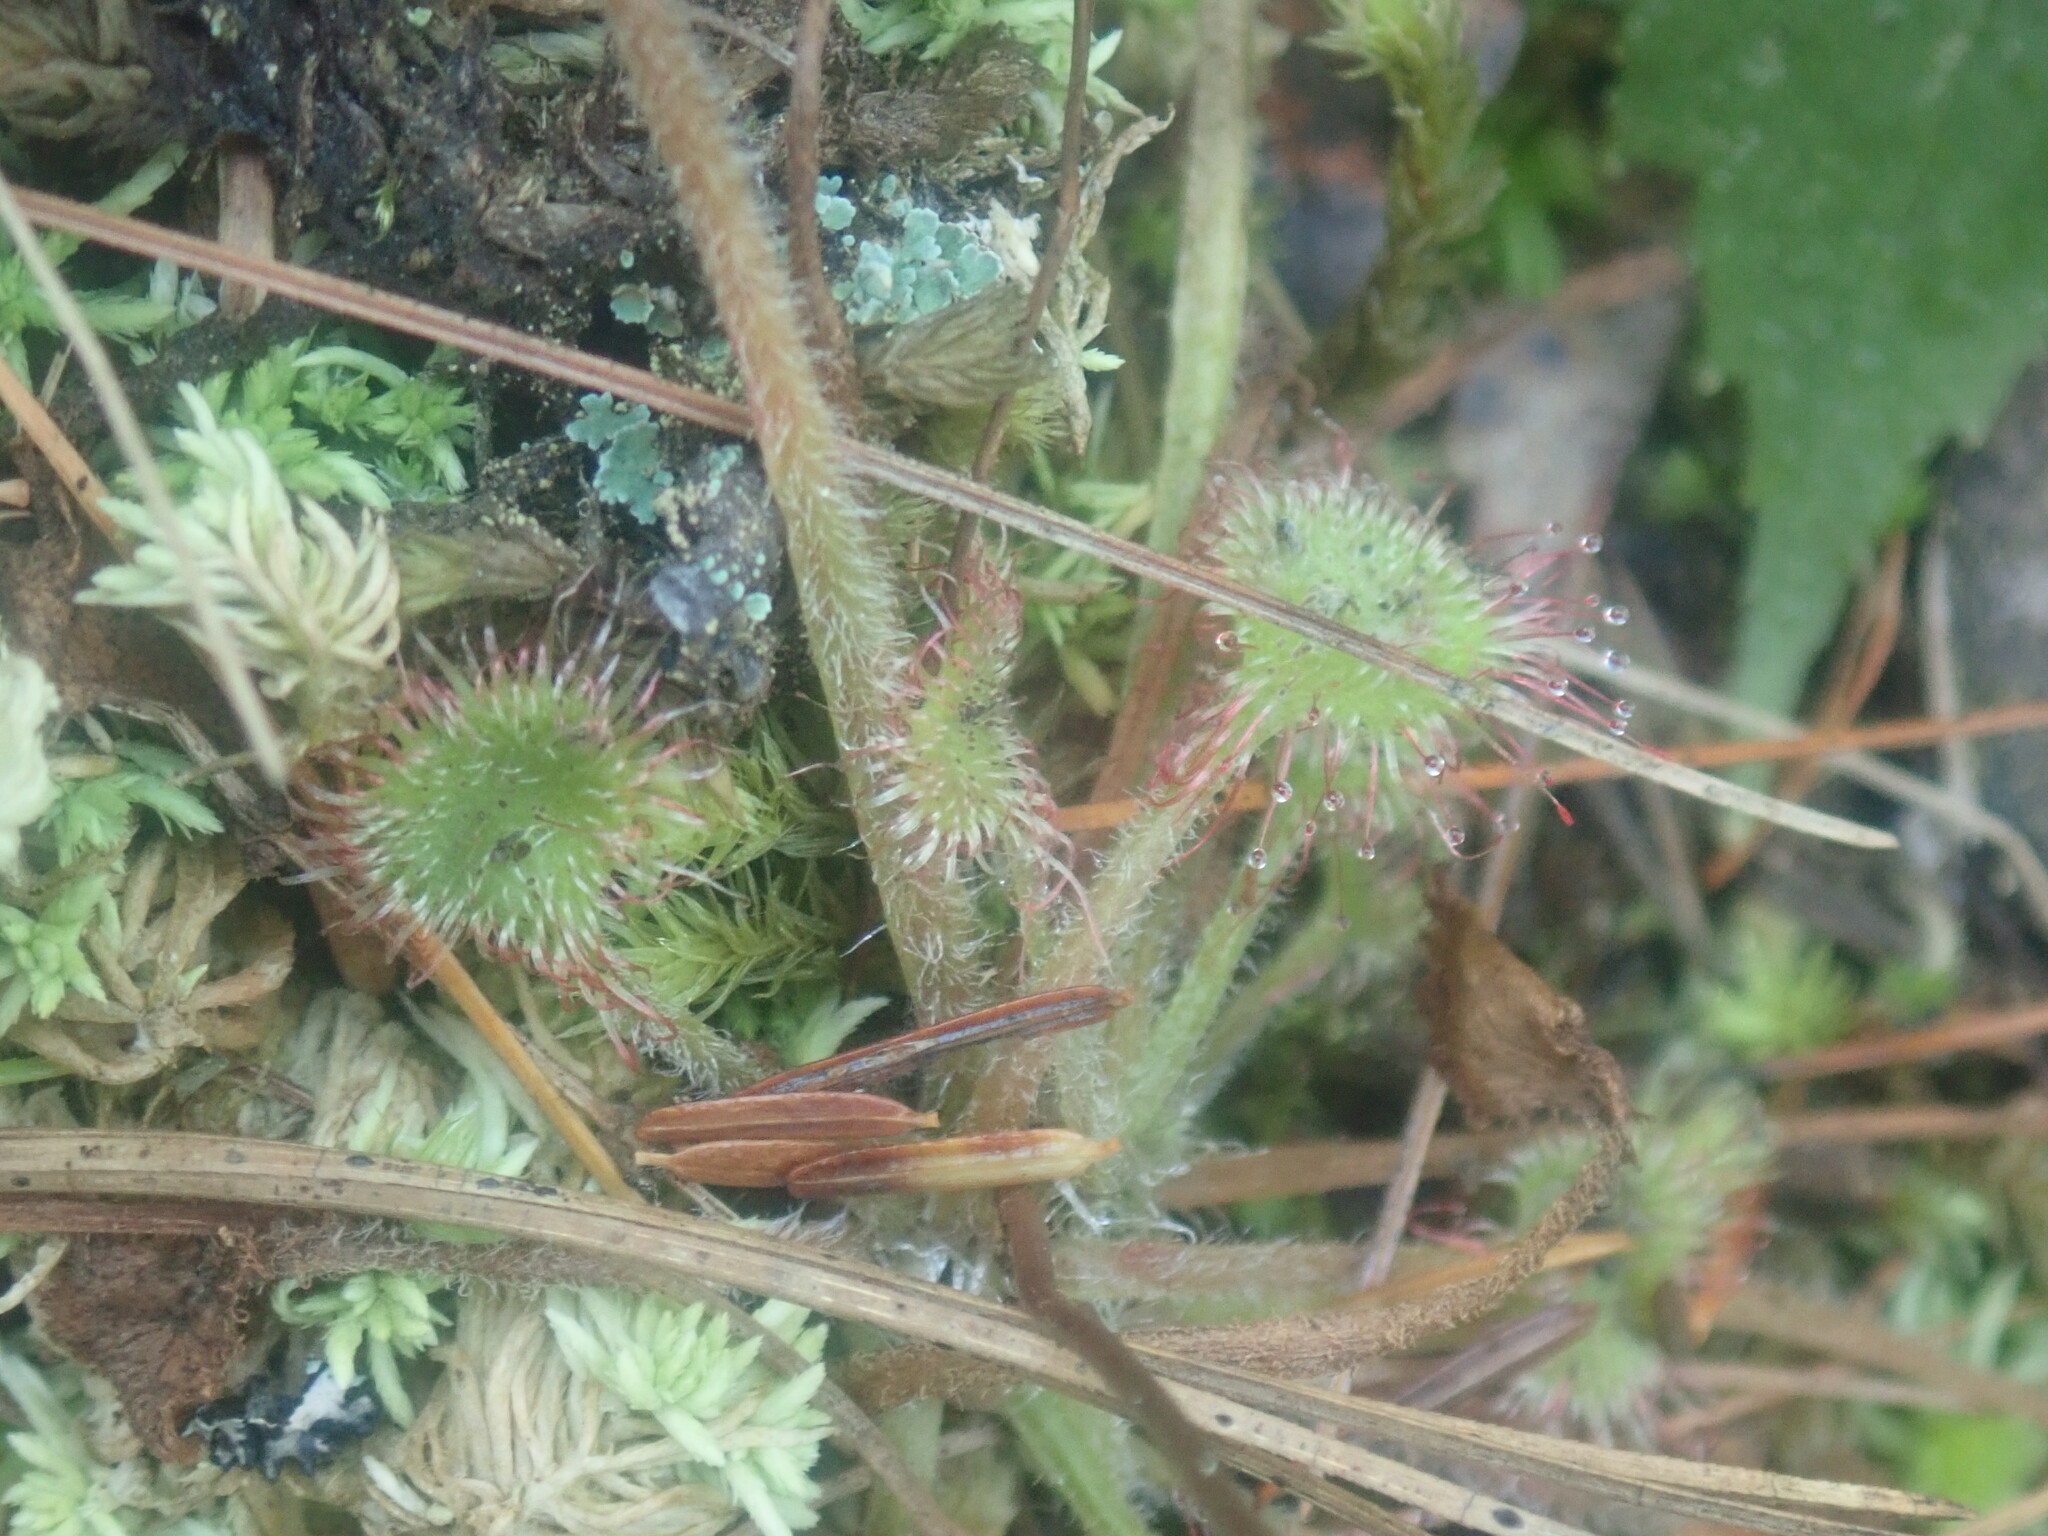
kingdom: Plantae
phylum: Tracheophyta
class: Magnoliopsida
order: Caryophyllales
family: Droseraceae
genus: Drosera
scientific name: Drosera rotundifolia
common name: Round-leaved sundew
